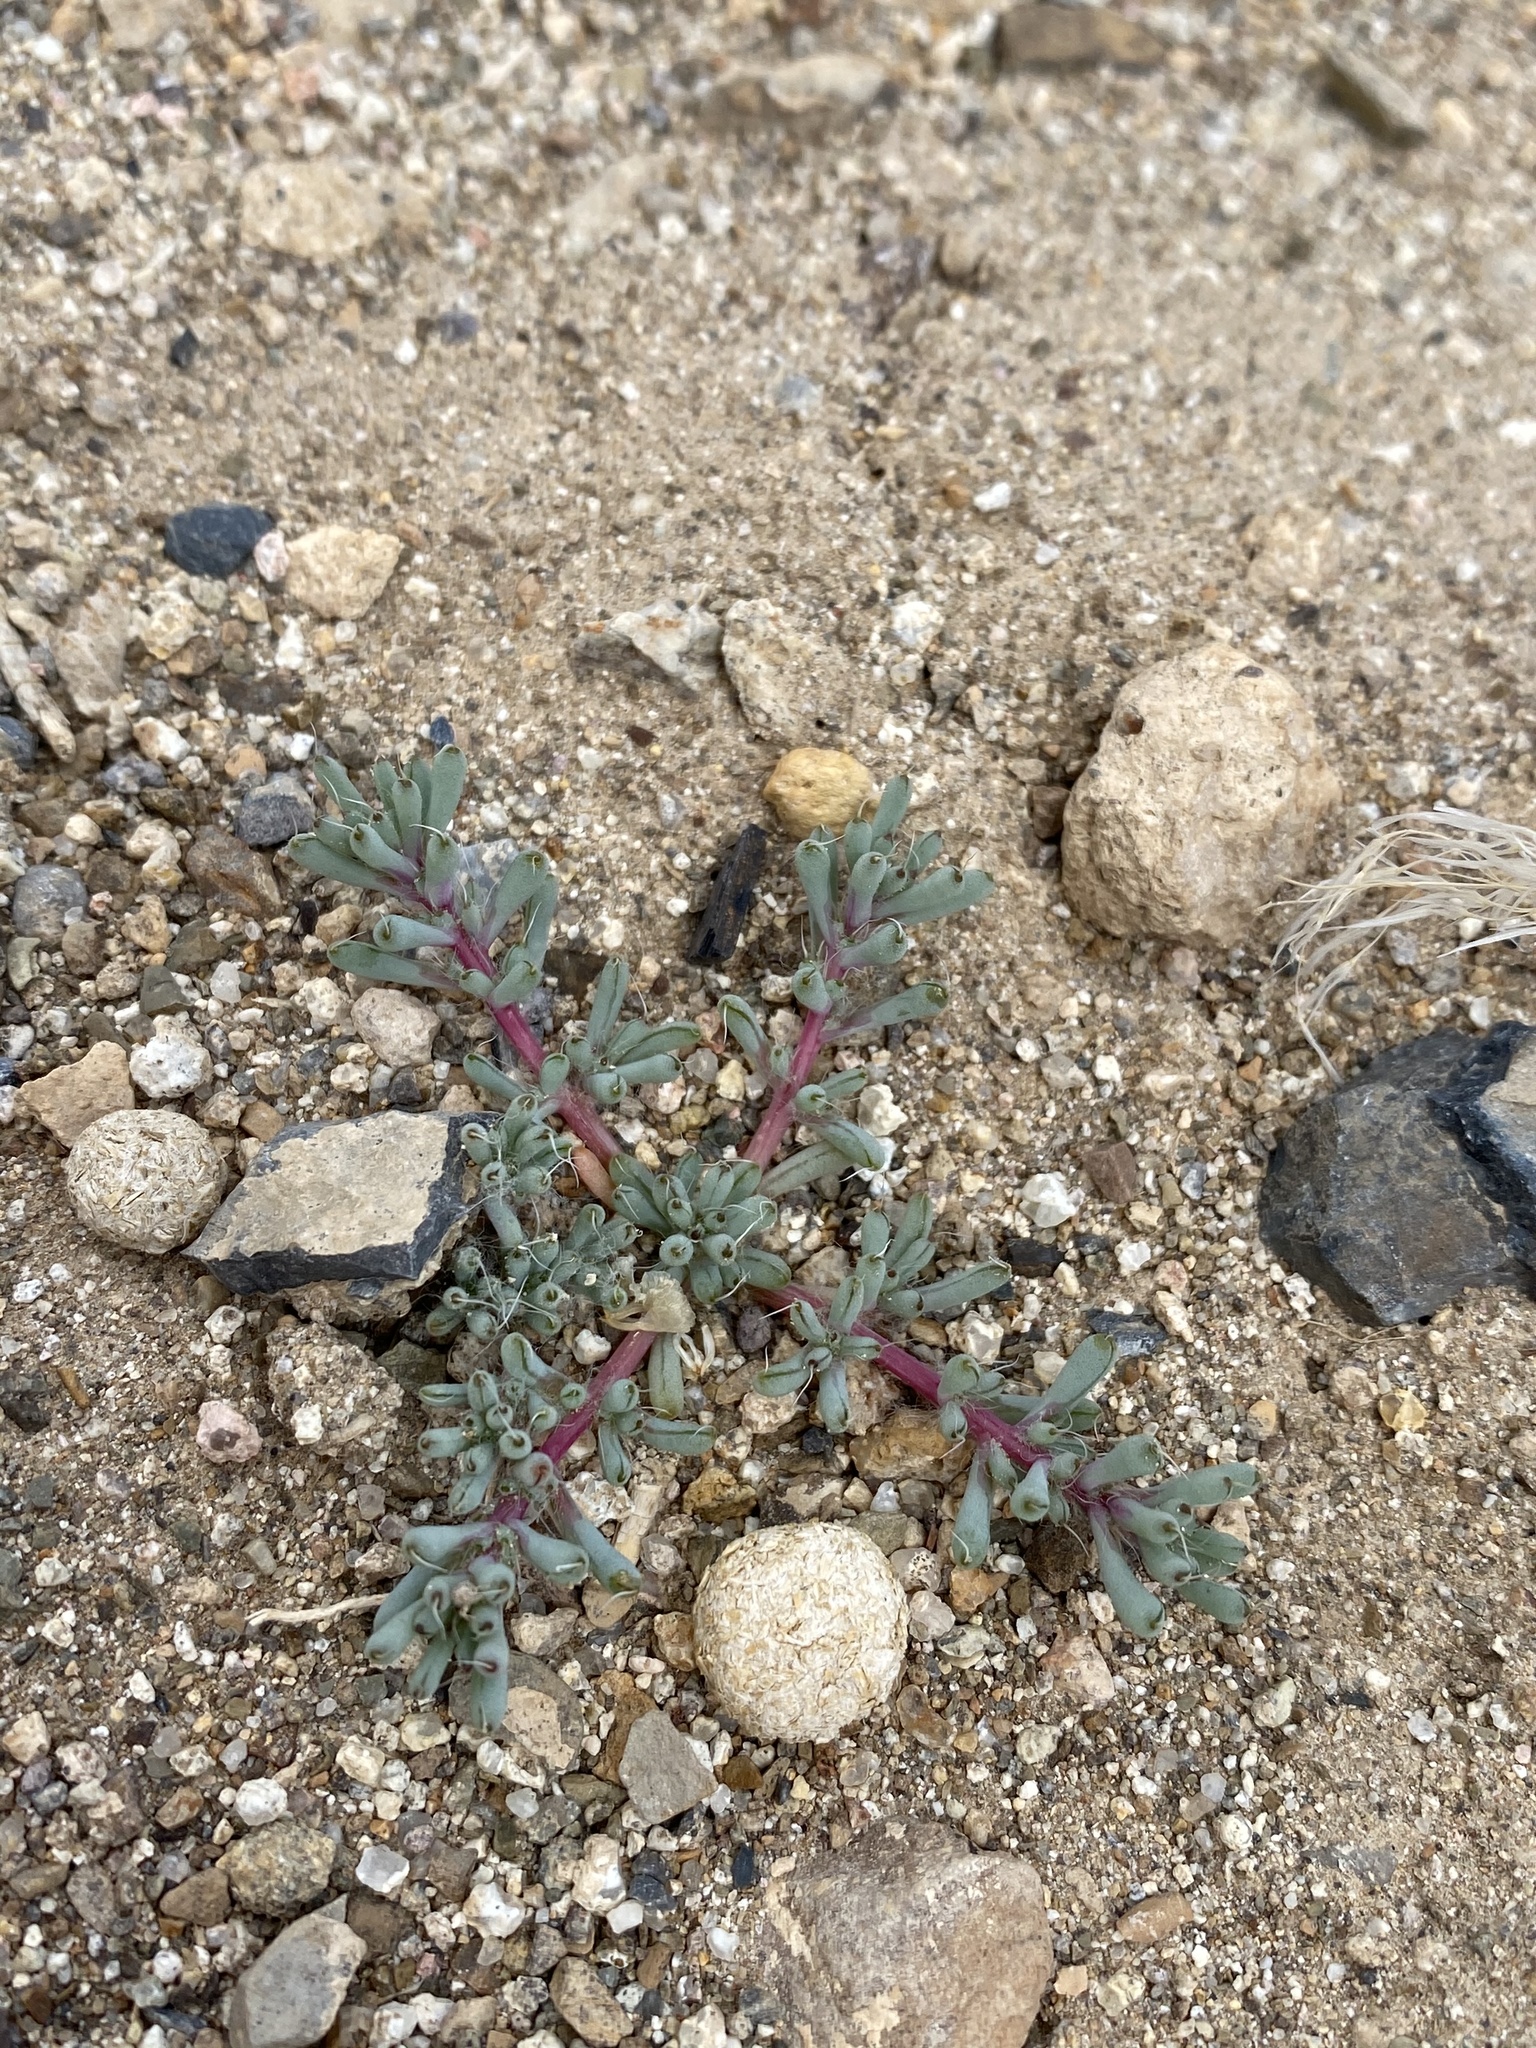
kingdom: Plantae
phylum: Tracheophyta
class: Magnoliopsida
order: Caryophyllales
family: Amaranthaceae
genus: Halogeton
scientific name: Halogeton glomeratus
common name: Saltlover
